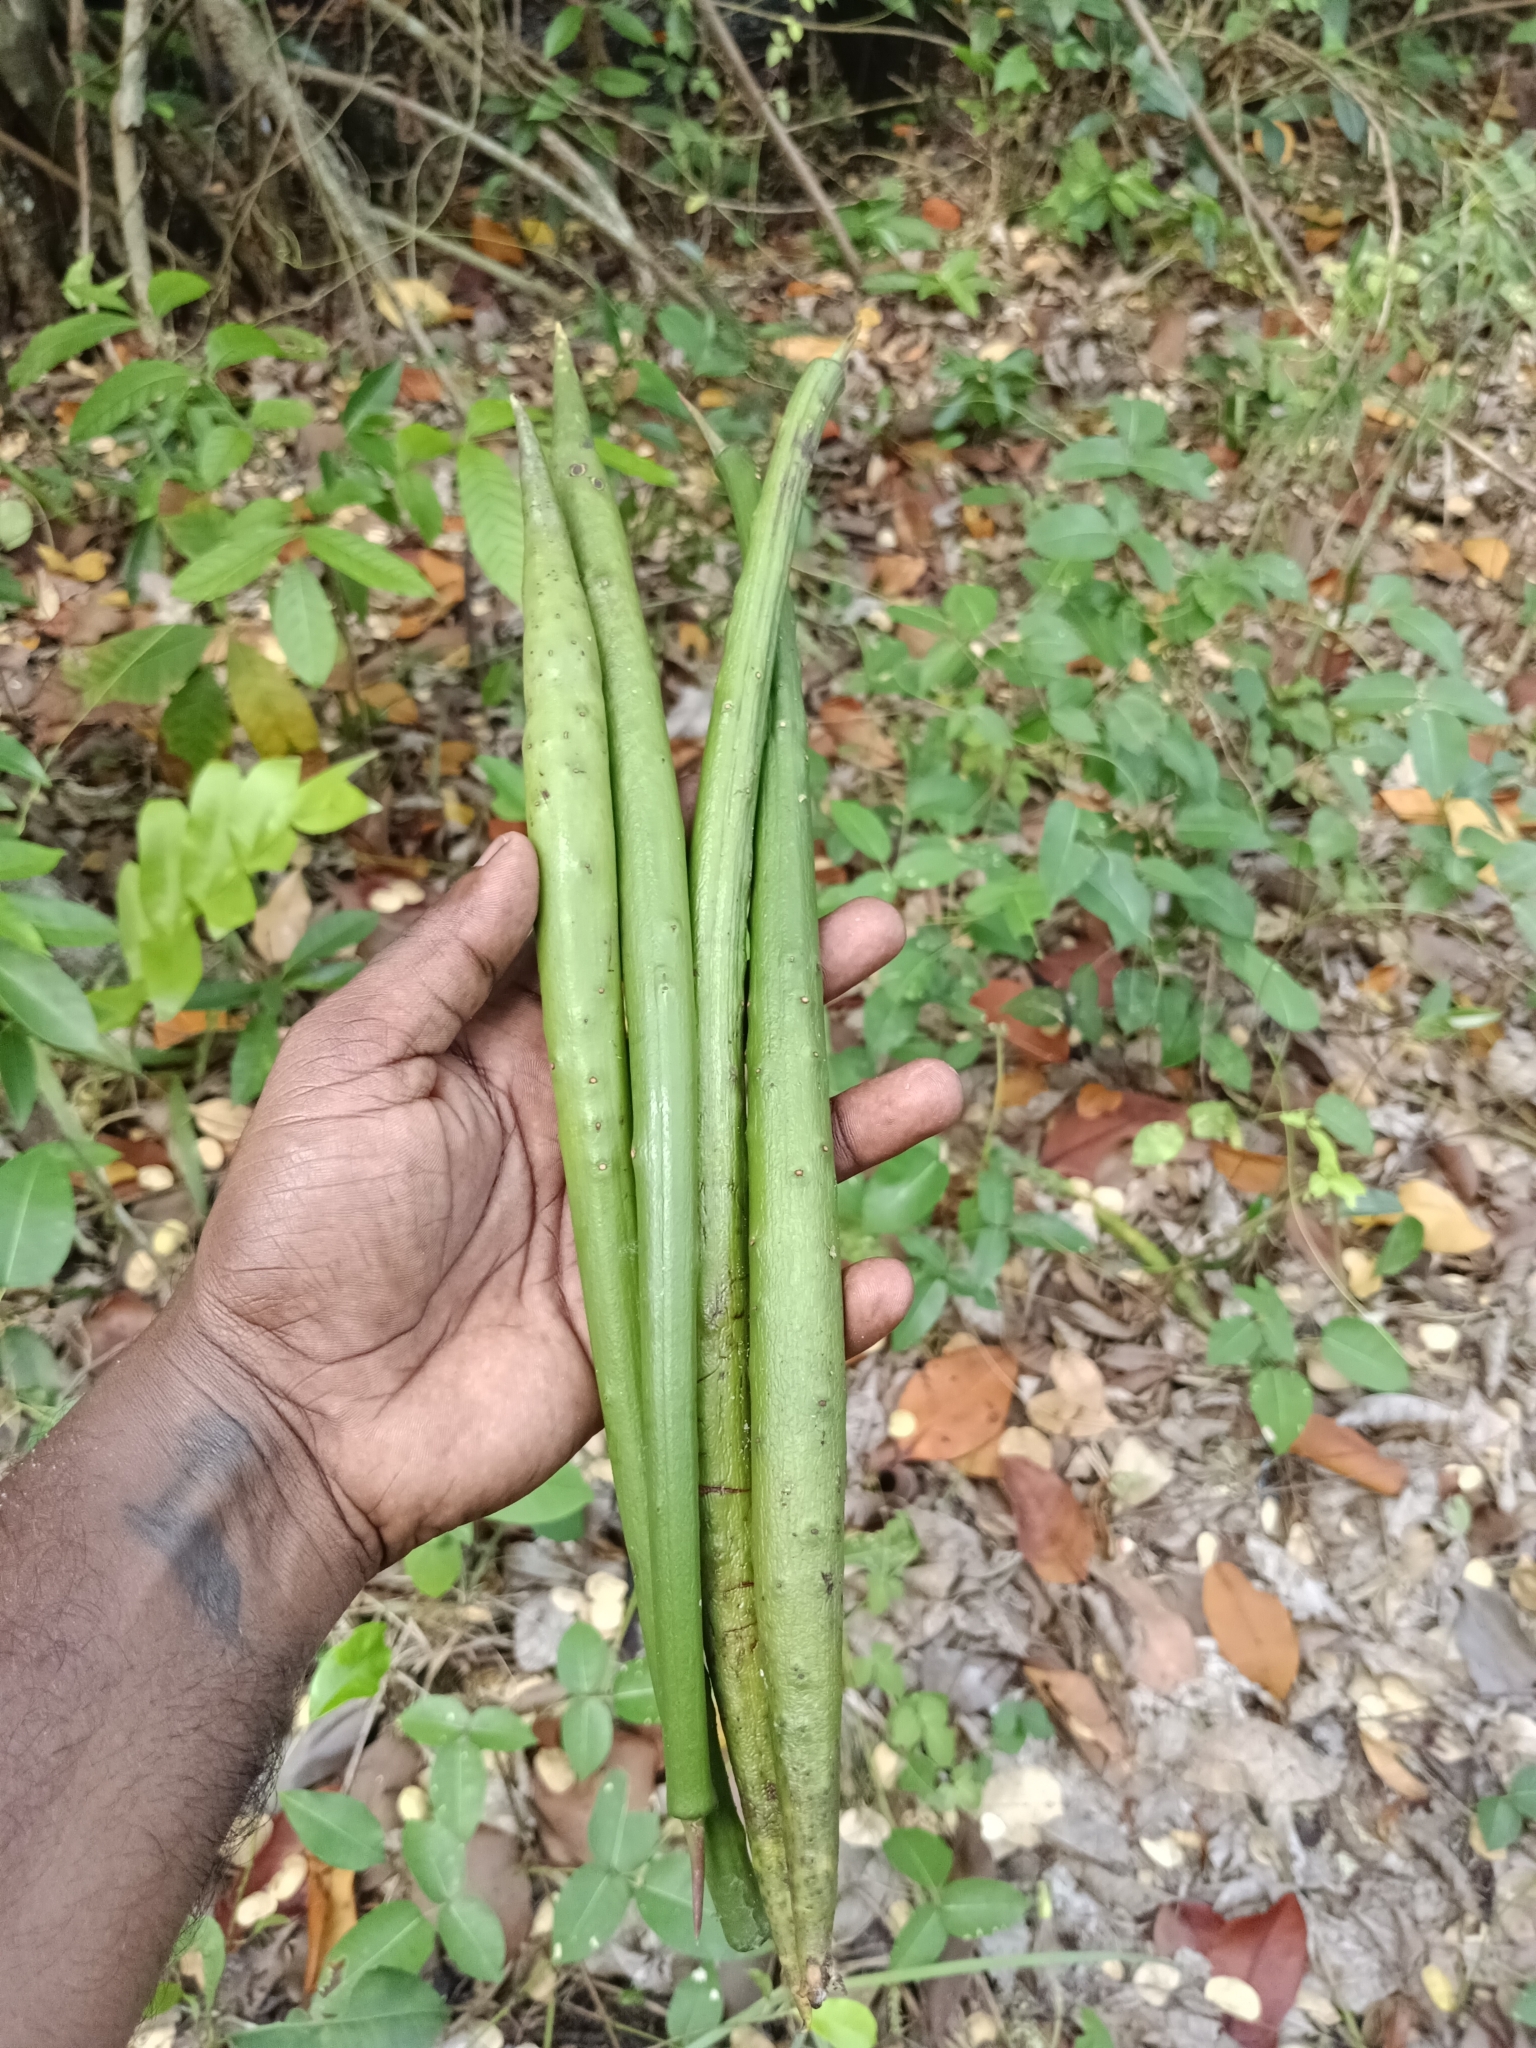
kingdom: Plantae
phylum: Tracheophyta
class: Magnoliopsida
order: Malpighiales
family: Rhizophoraceae
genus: Rhizophora
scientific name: Rhizophora mangle
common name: Red mangrove
